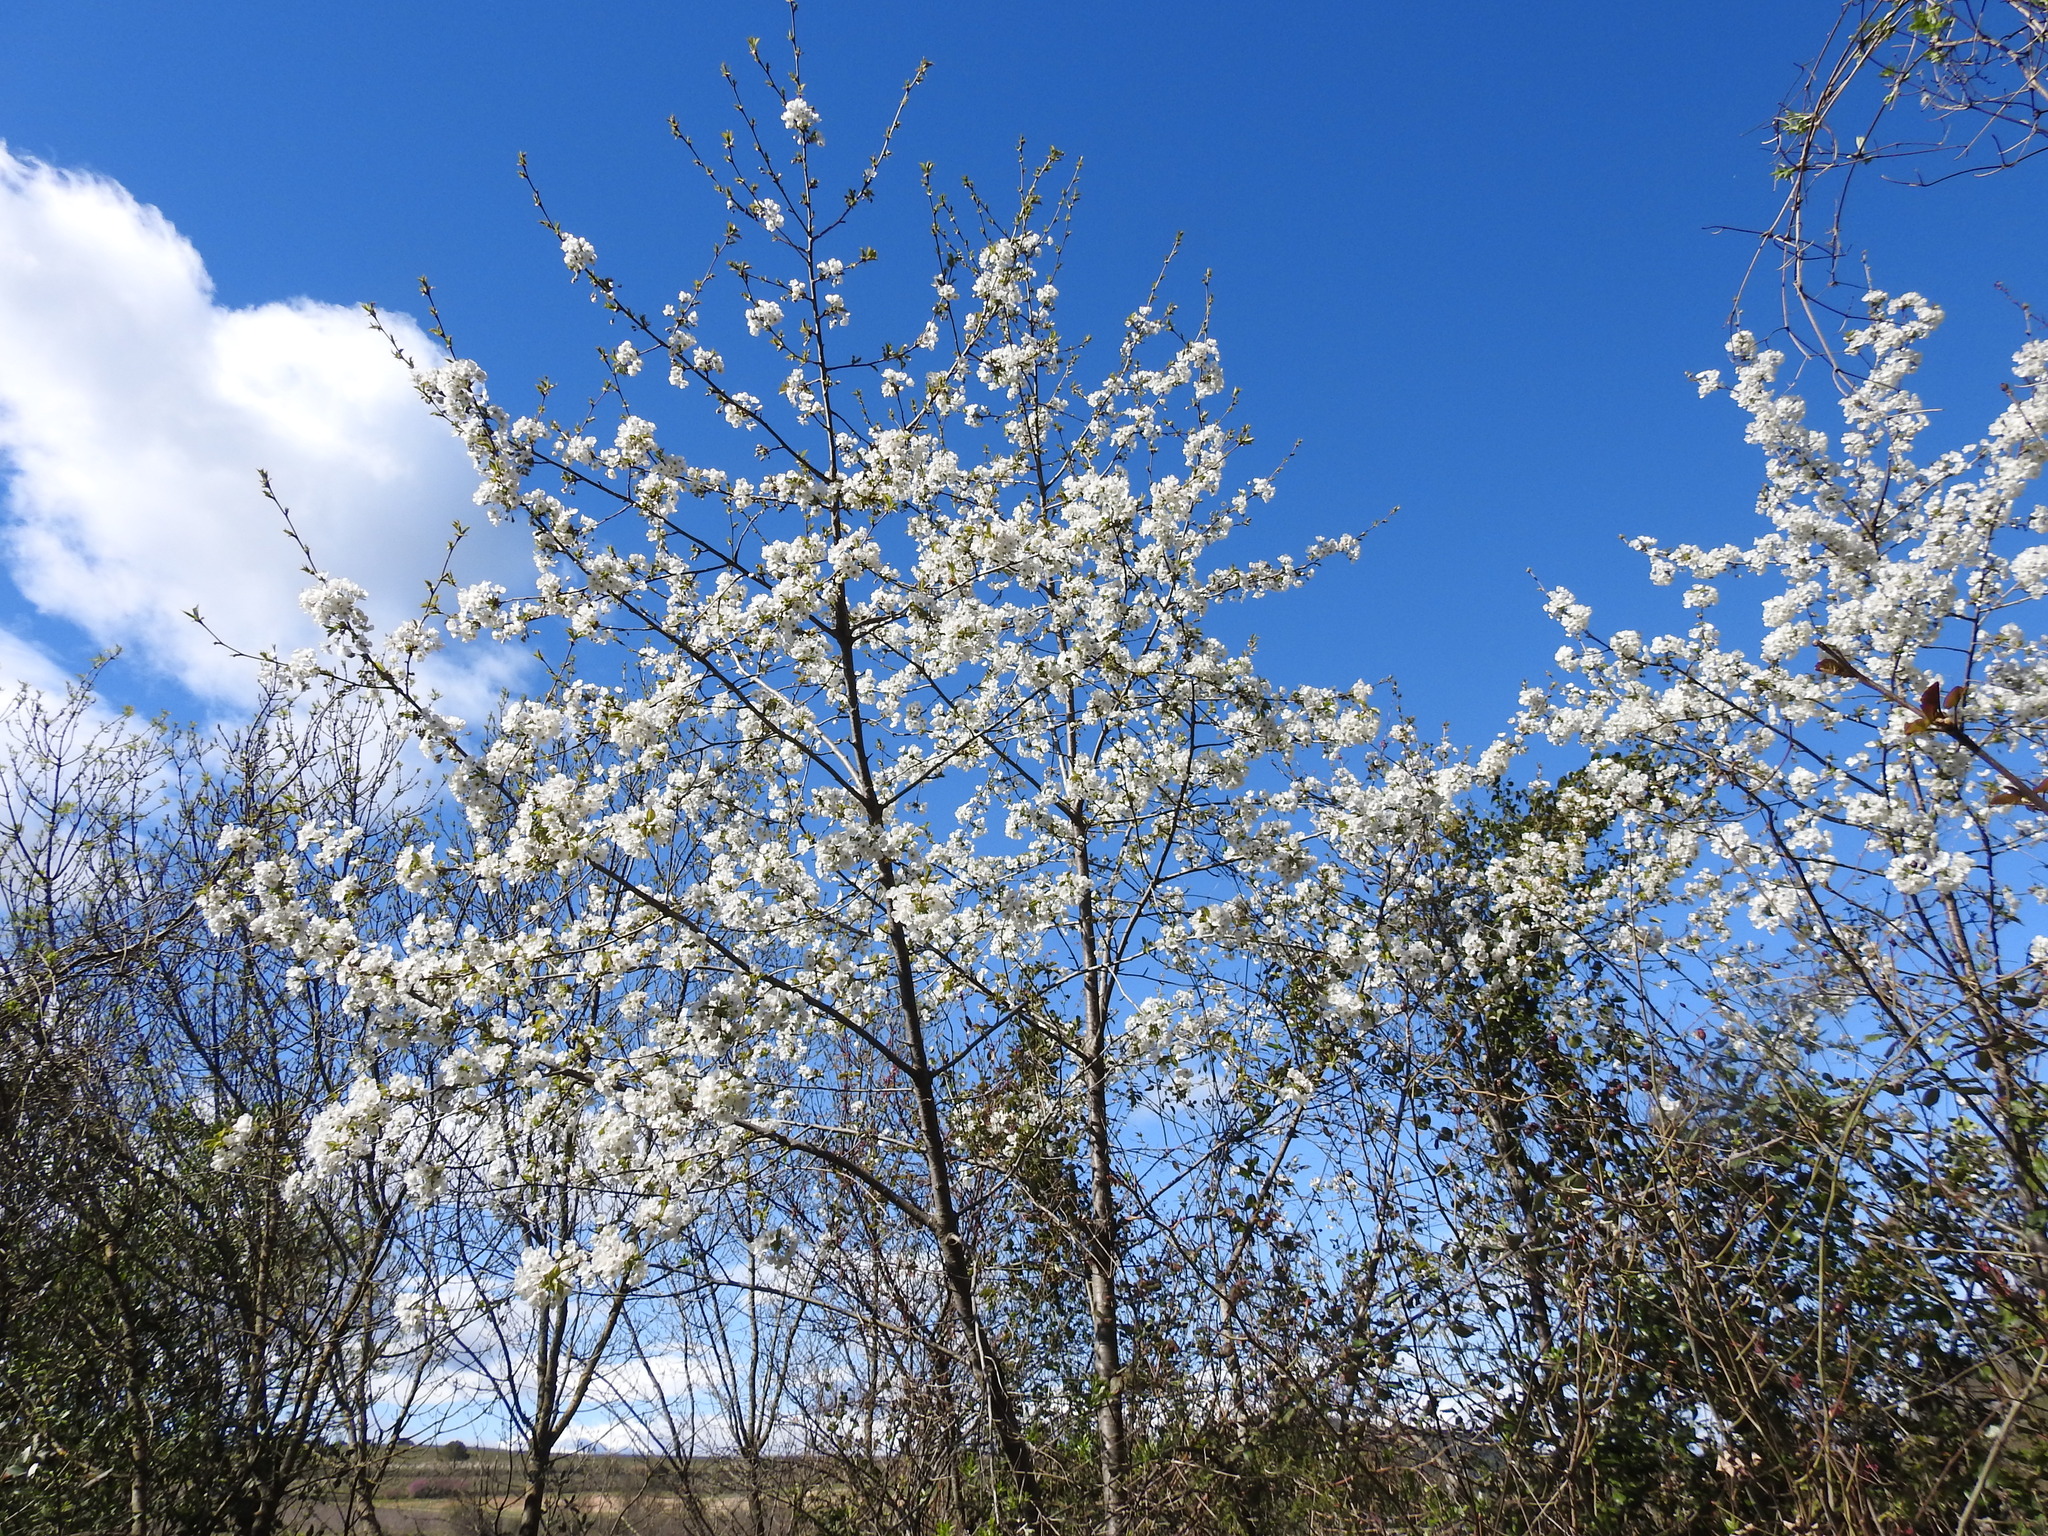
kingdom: Plantae
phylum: Tracheophyta
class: Magnoliopsida
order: Rosales
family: Rosaceae
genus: Prunus
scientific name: Prunus avium
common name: Sweet cherry
